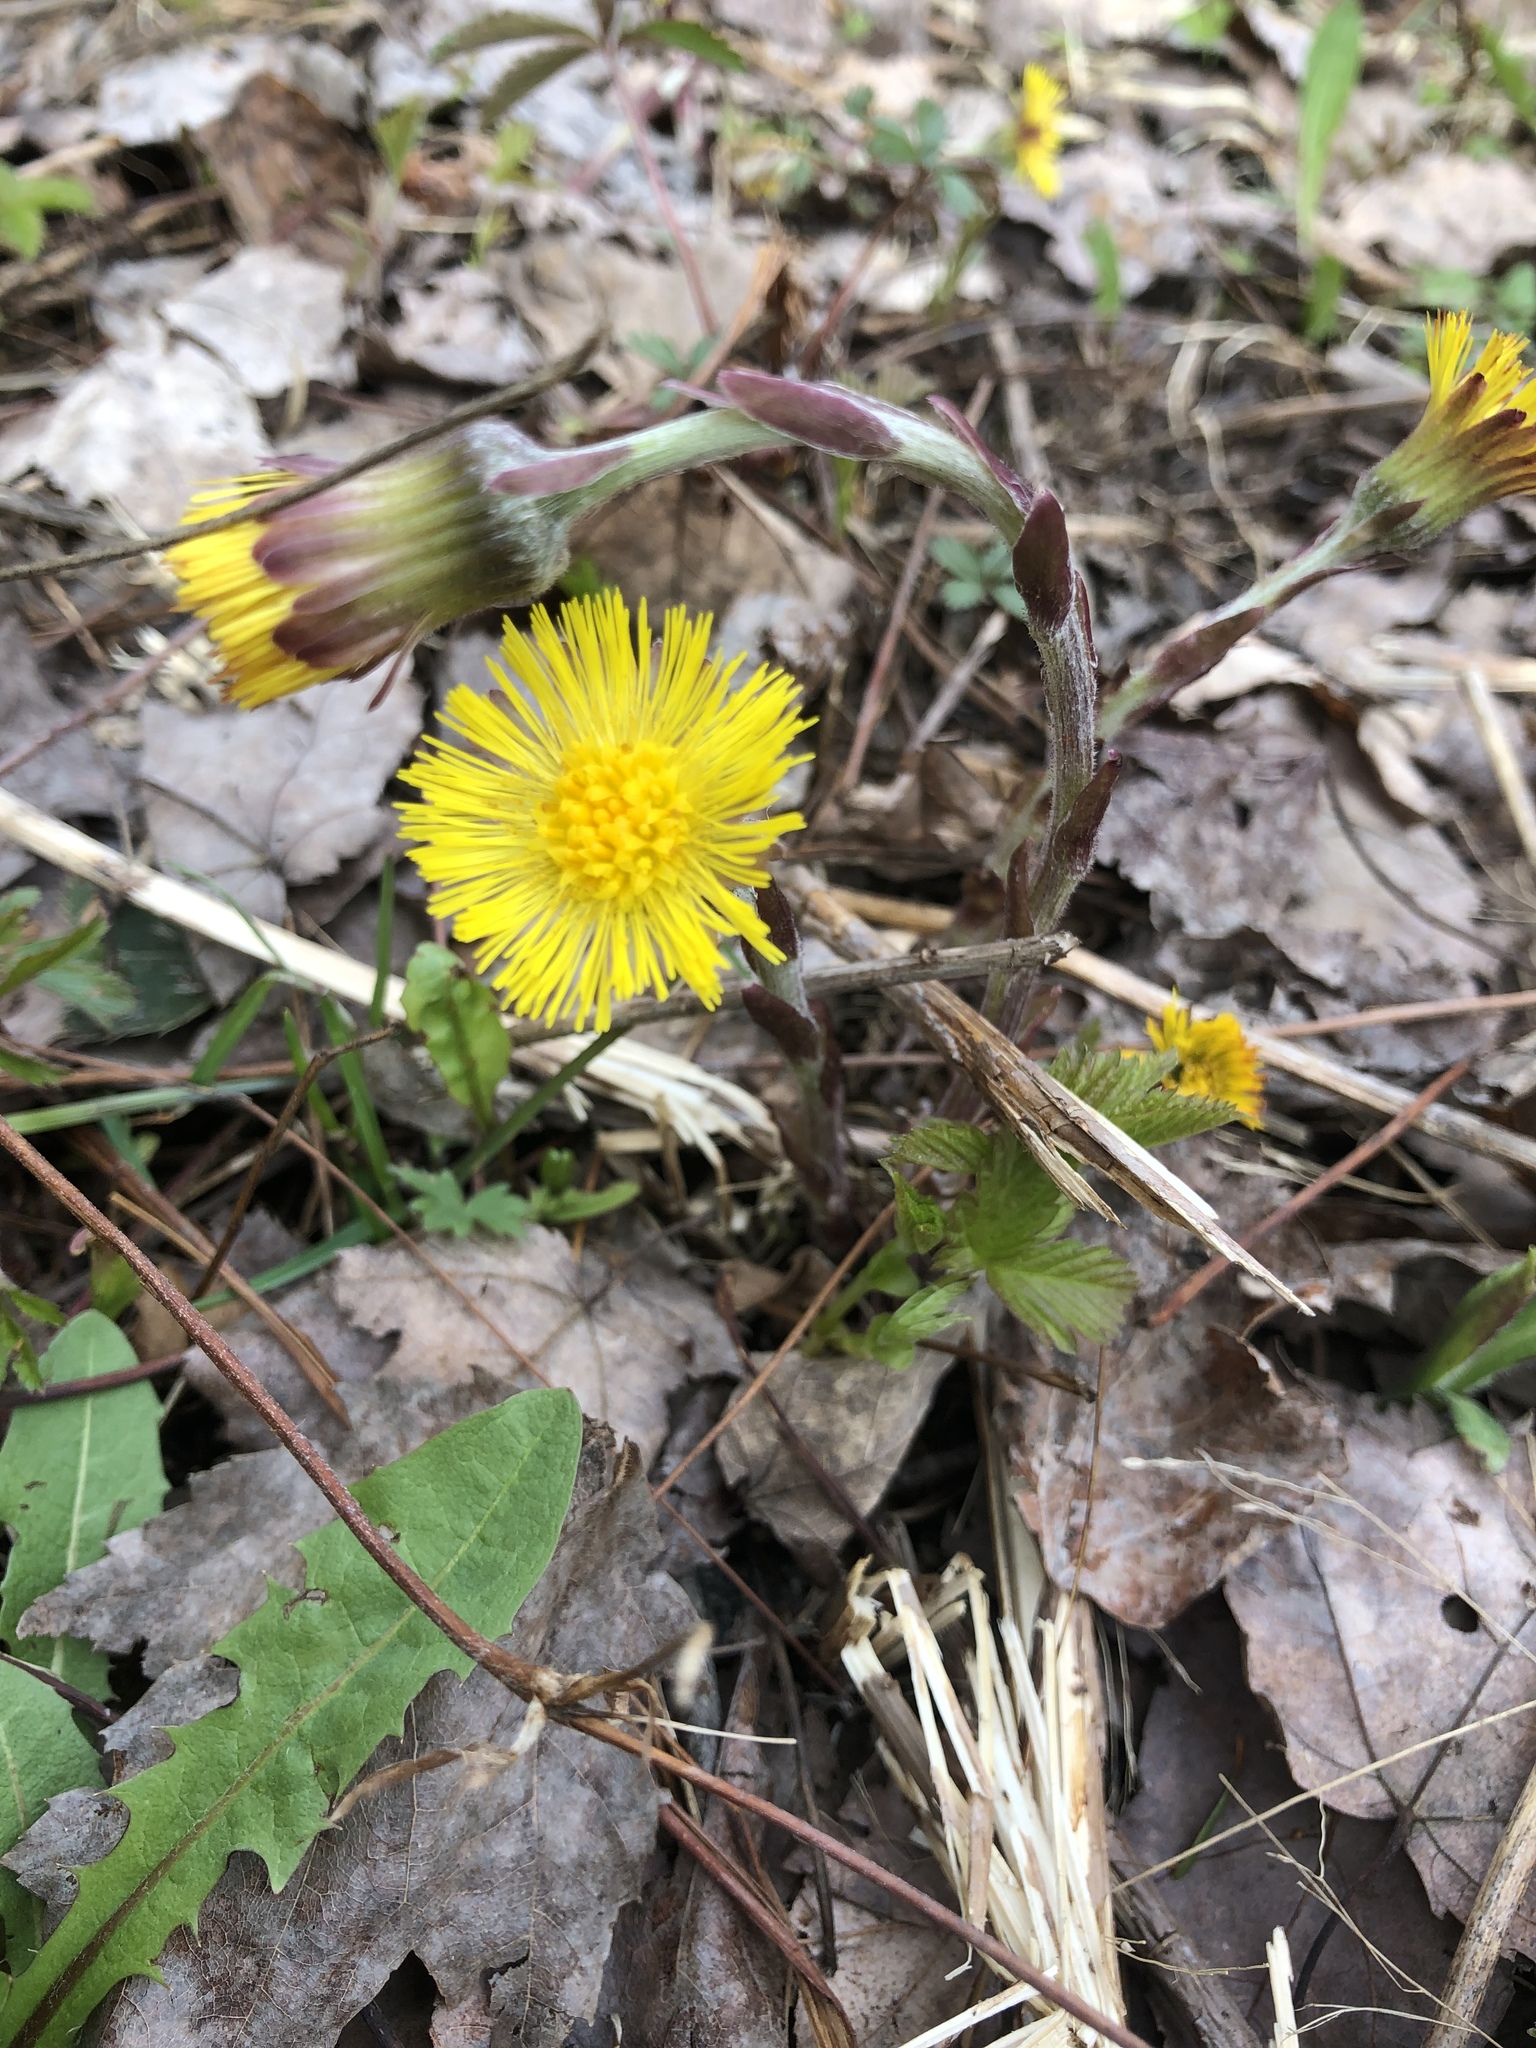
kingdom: Plantae
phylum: Tracheophyta
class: Magnoliopsida
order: Asterales
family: Asteraceae
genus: Tussilago
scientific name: Tussilago farfara
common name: Coltsfoot
